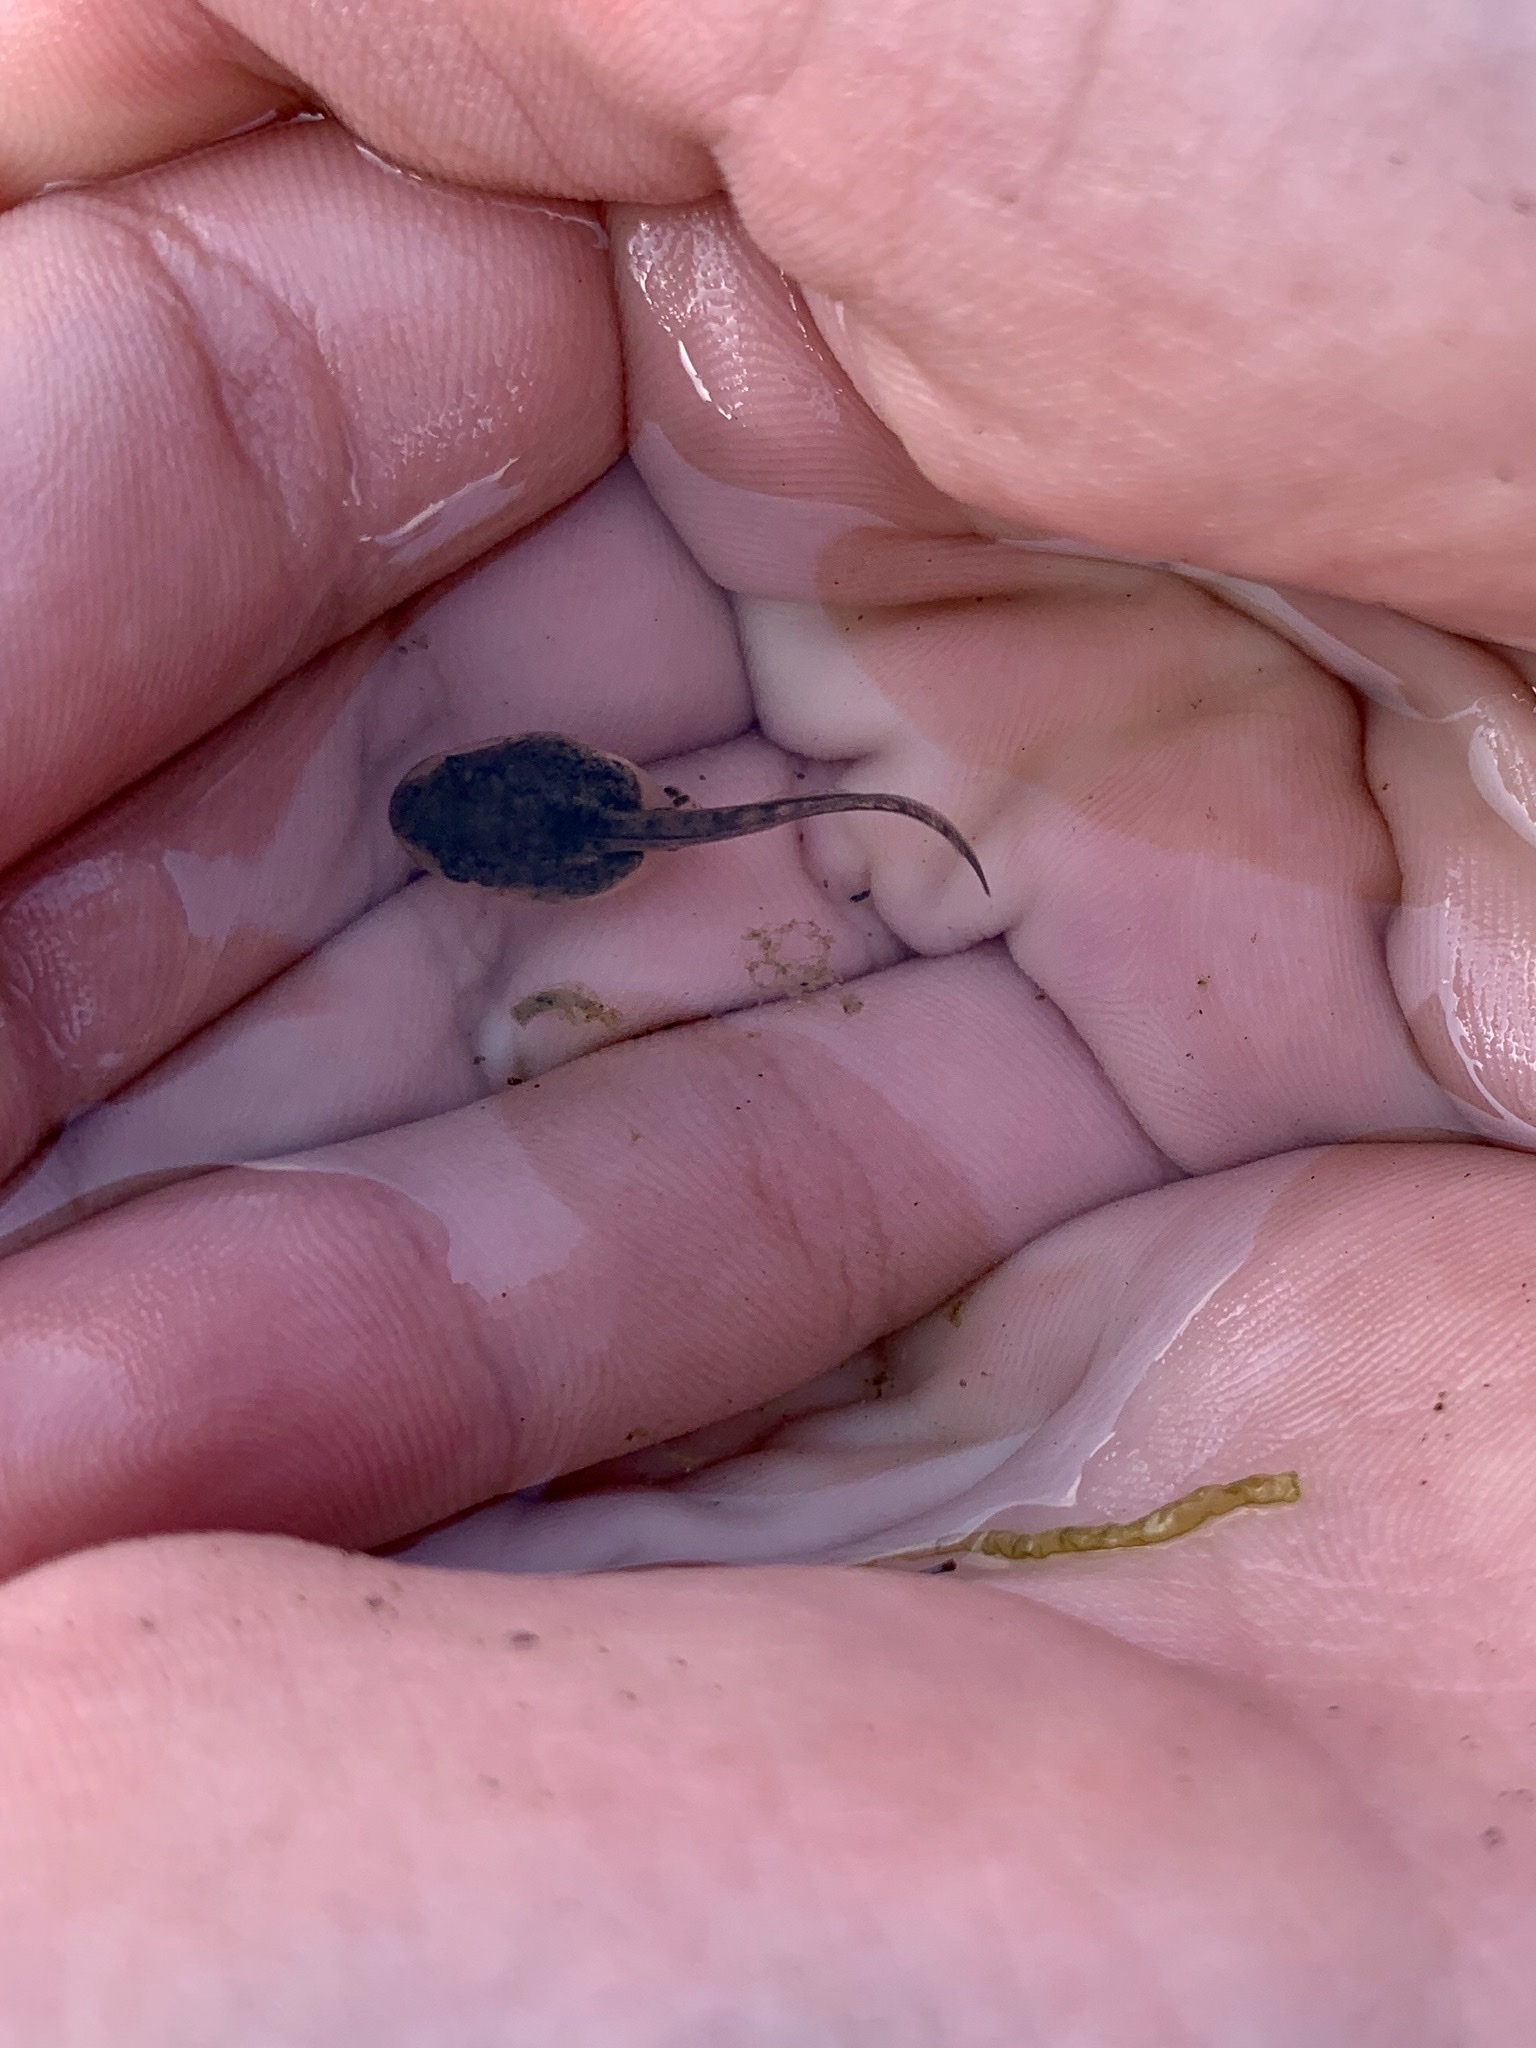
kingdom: Animalia
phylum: Chordata
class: Amphibia
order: Anura
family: Hylidae
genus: Pseudacris
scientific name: Pseudacris regilla
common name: Pacific chorus frog
